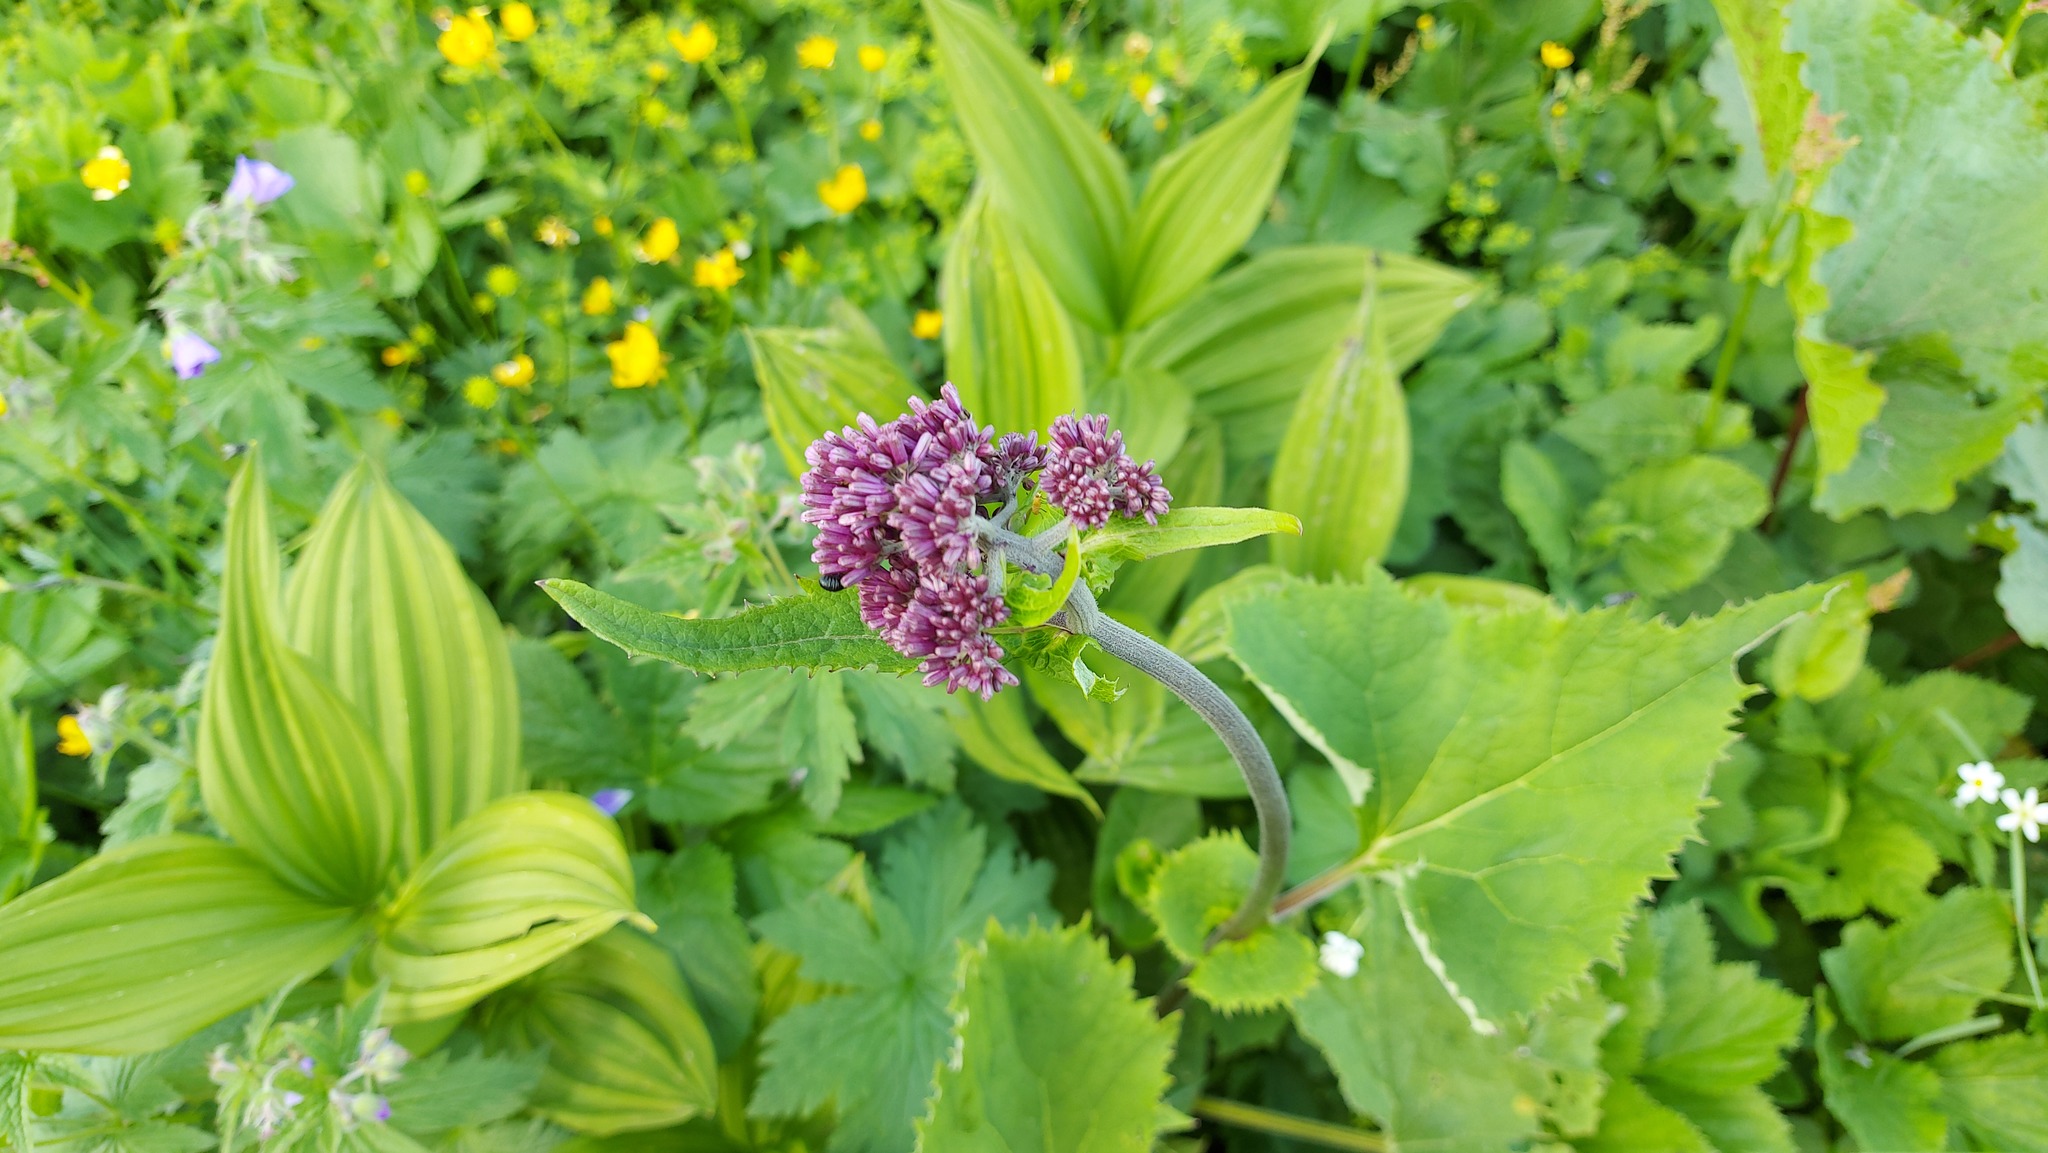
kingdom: Plantae
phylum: Tracheophyta
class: Magnoliopsida
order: Asterales
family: Asteraceae
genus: Adenostyles
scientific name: Adenostyles alliariae
